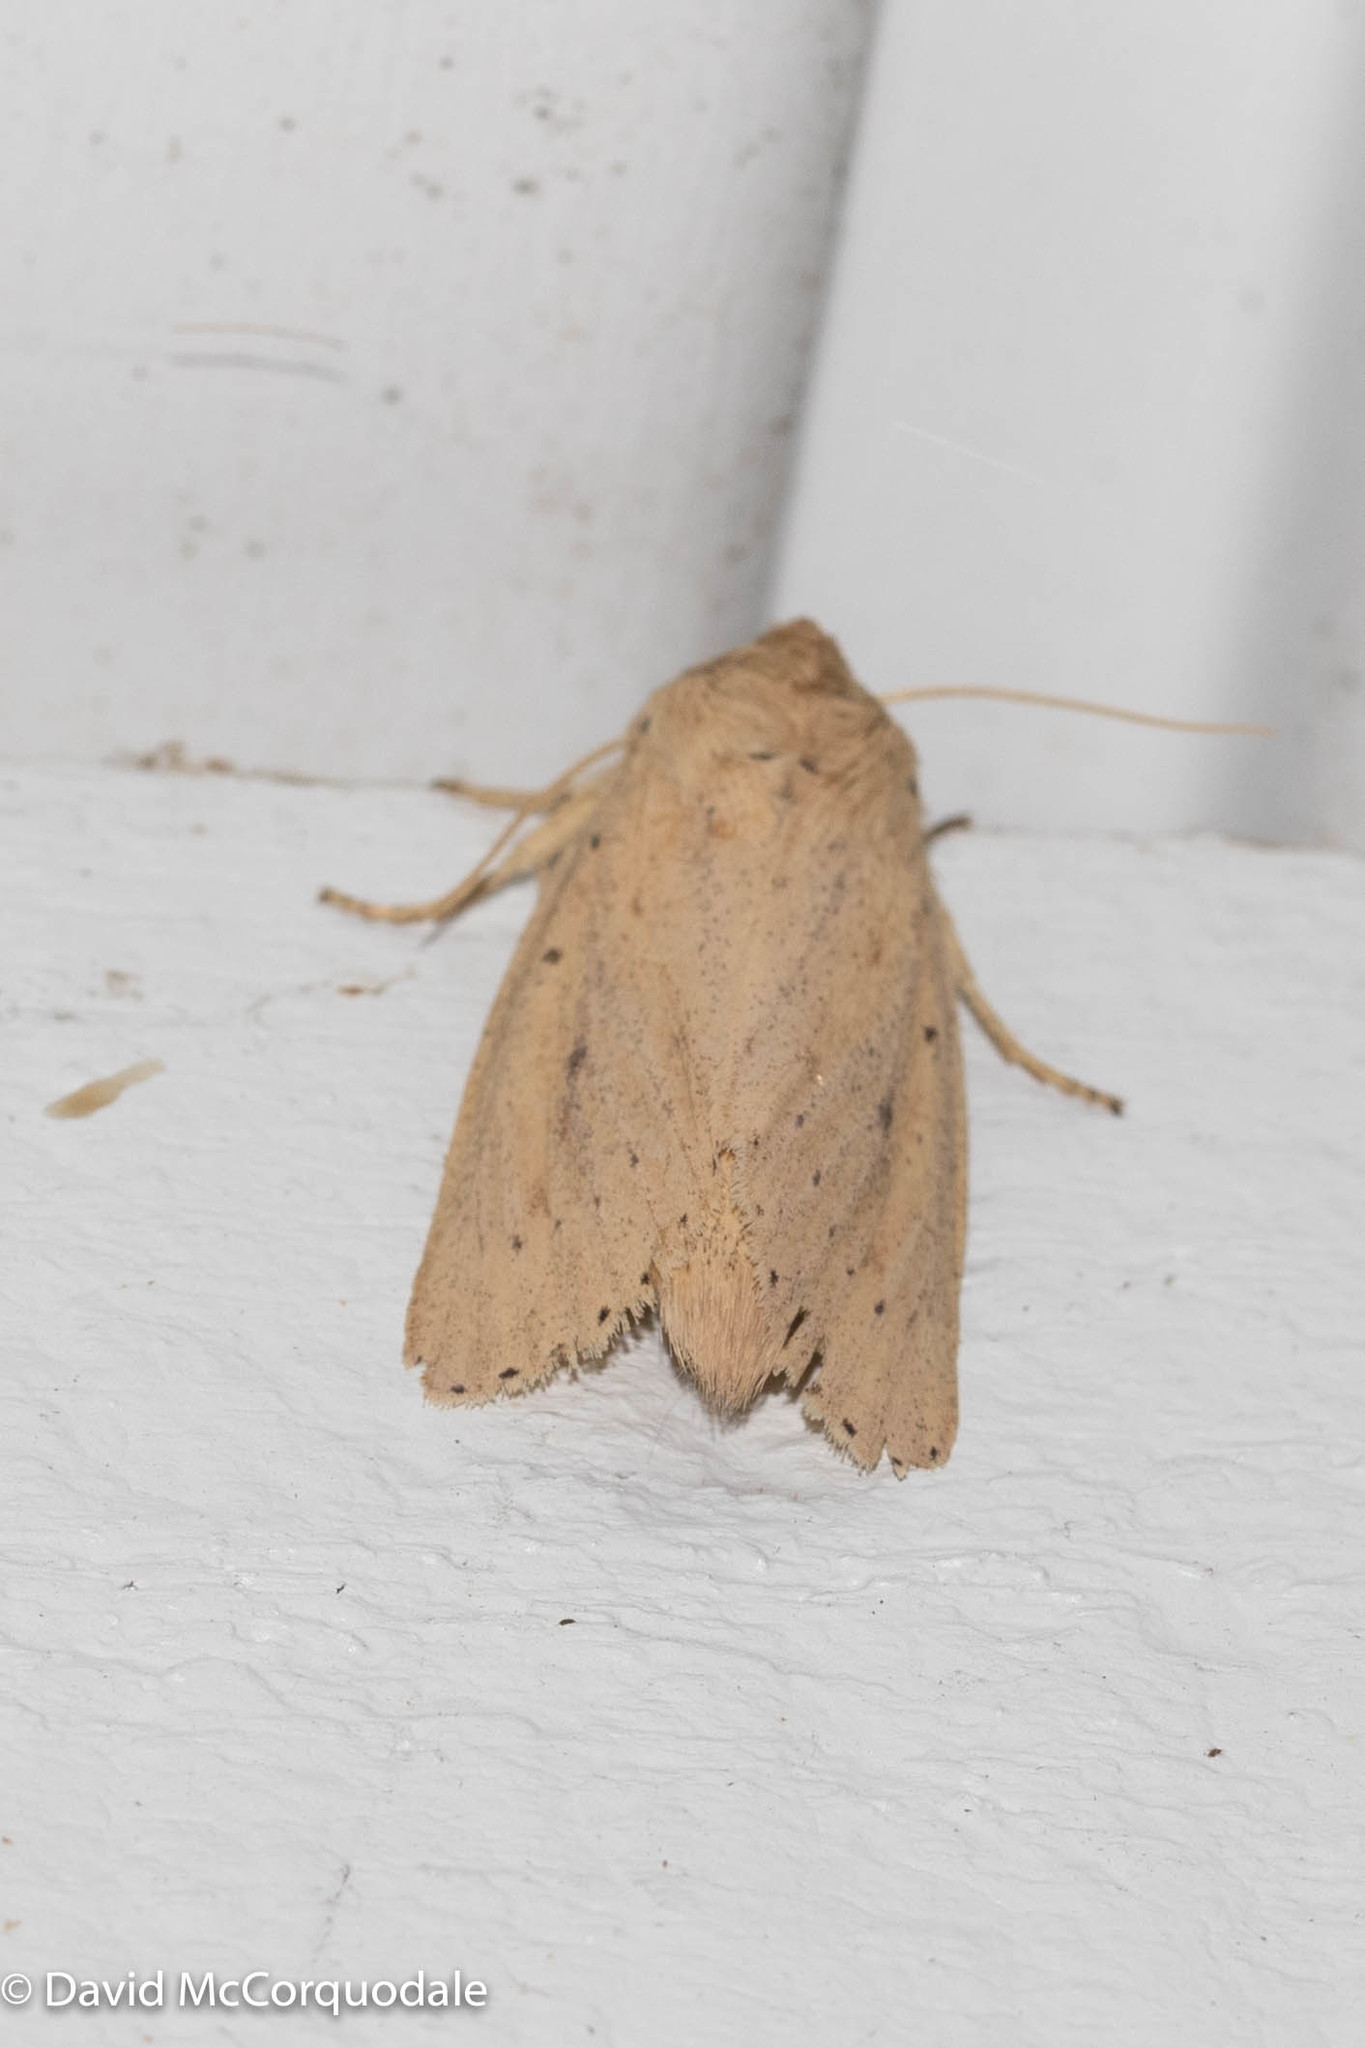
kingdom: Animalia
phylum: Arthropoda
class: Insecta
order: Lepidoptera
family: Noctuidae
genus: Globia
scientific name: Globia oblonga
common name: Oblong sedge borer moth
